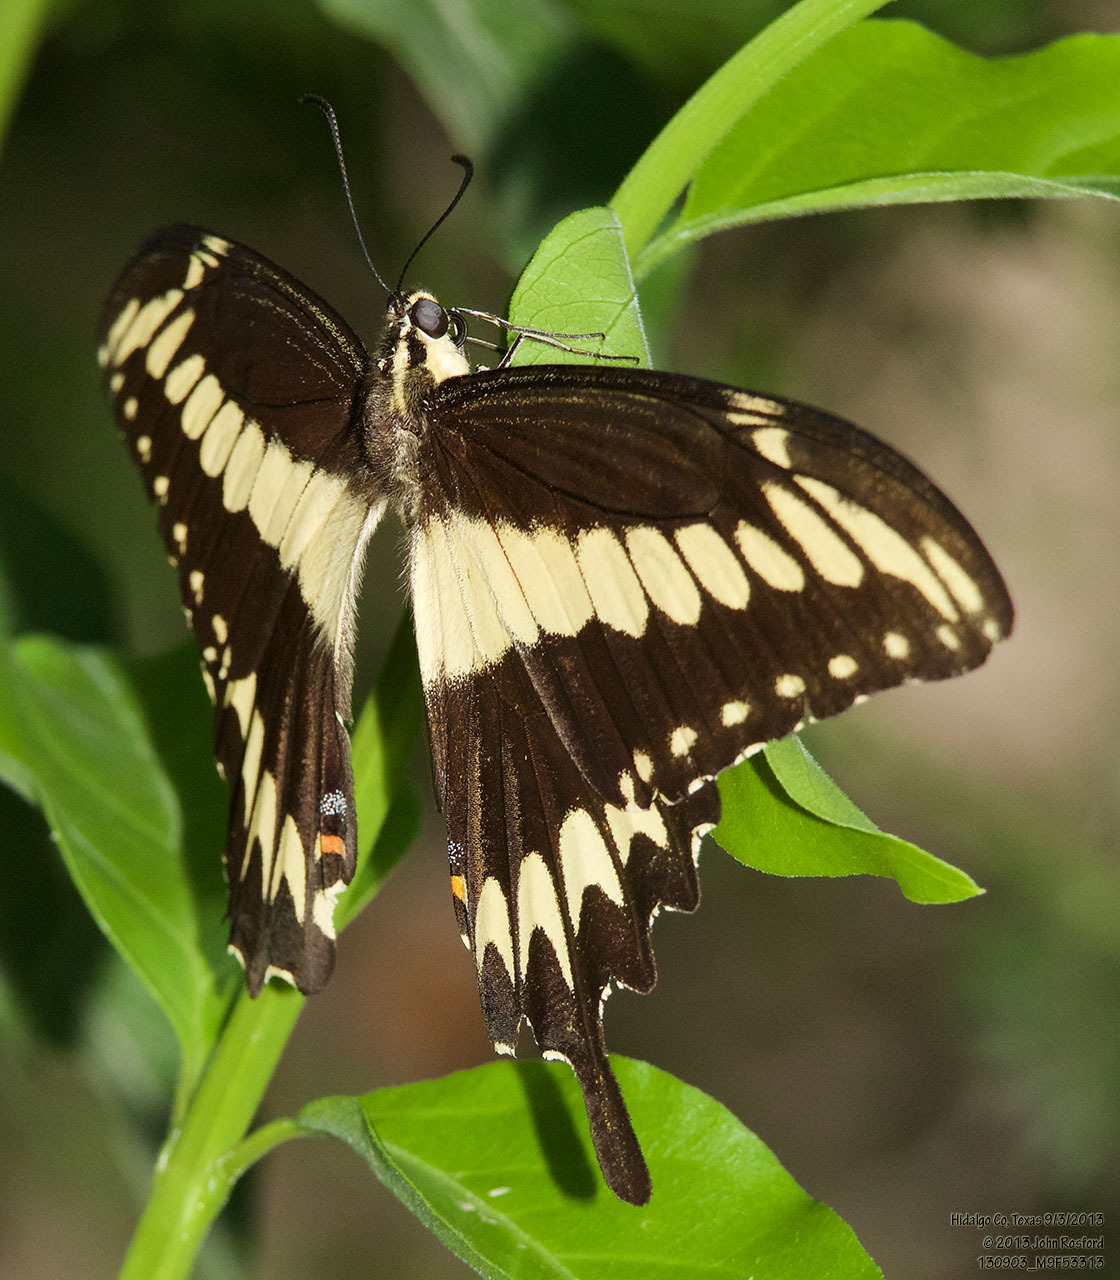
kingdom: Animalia
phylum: Arthropoda
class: Insecta
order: Lepidoptera
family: Papilionidae
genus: Papilio
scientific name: Papilio ornythion
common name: Ornythion swallowtail
